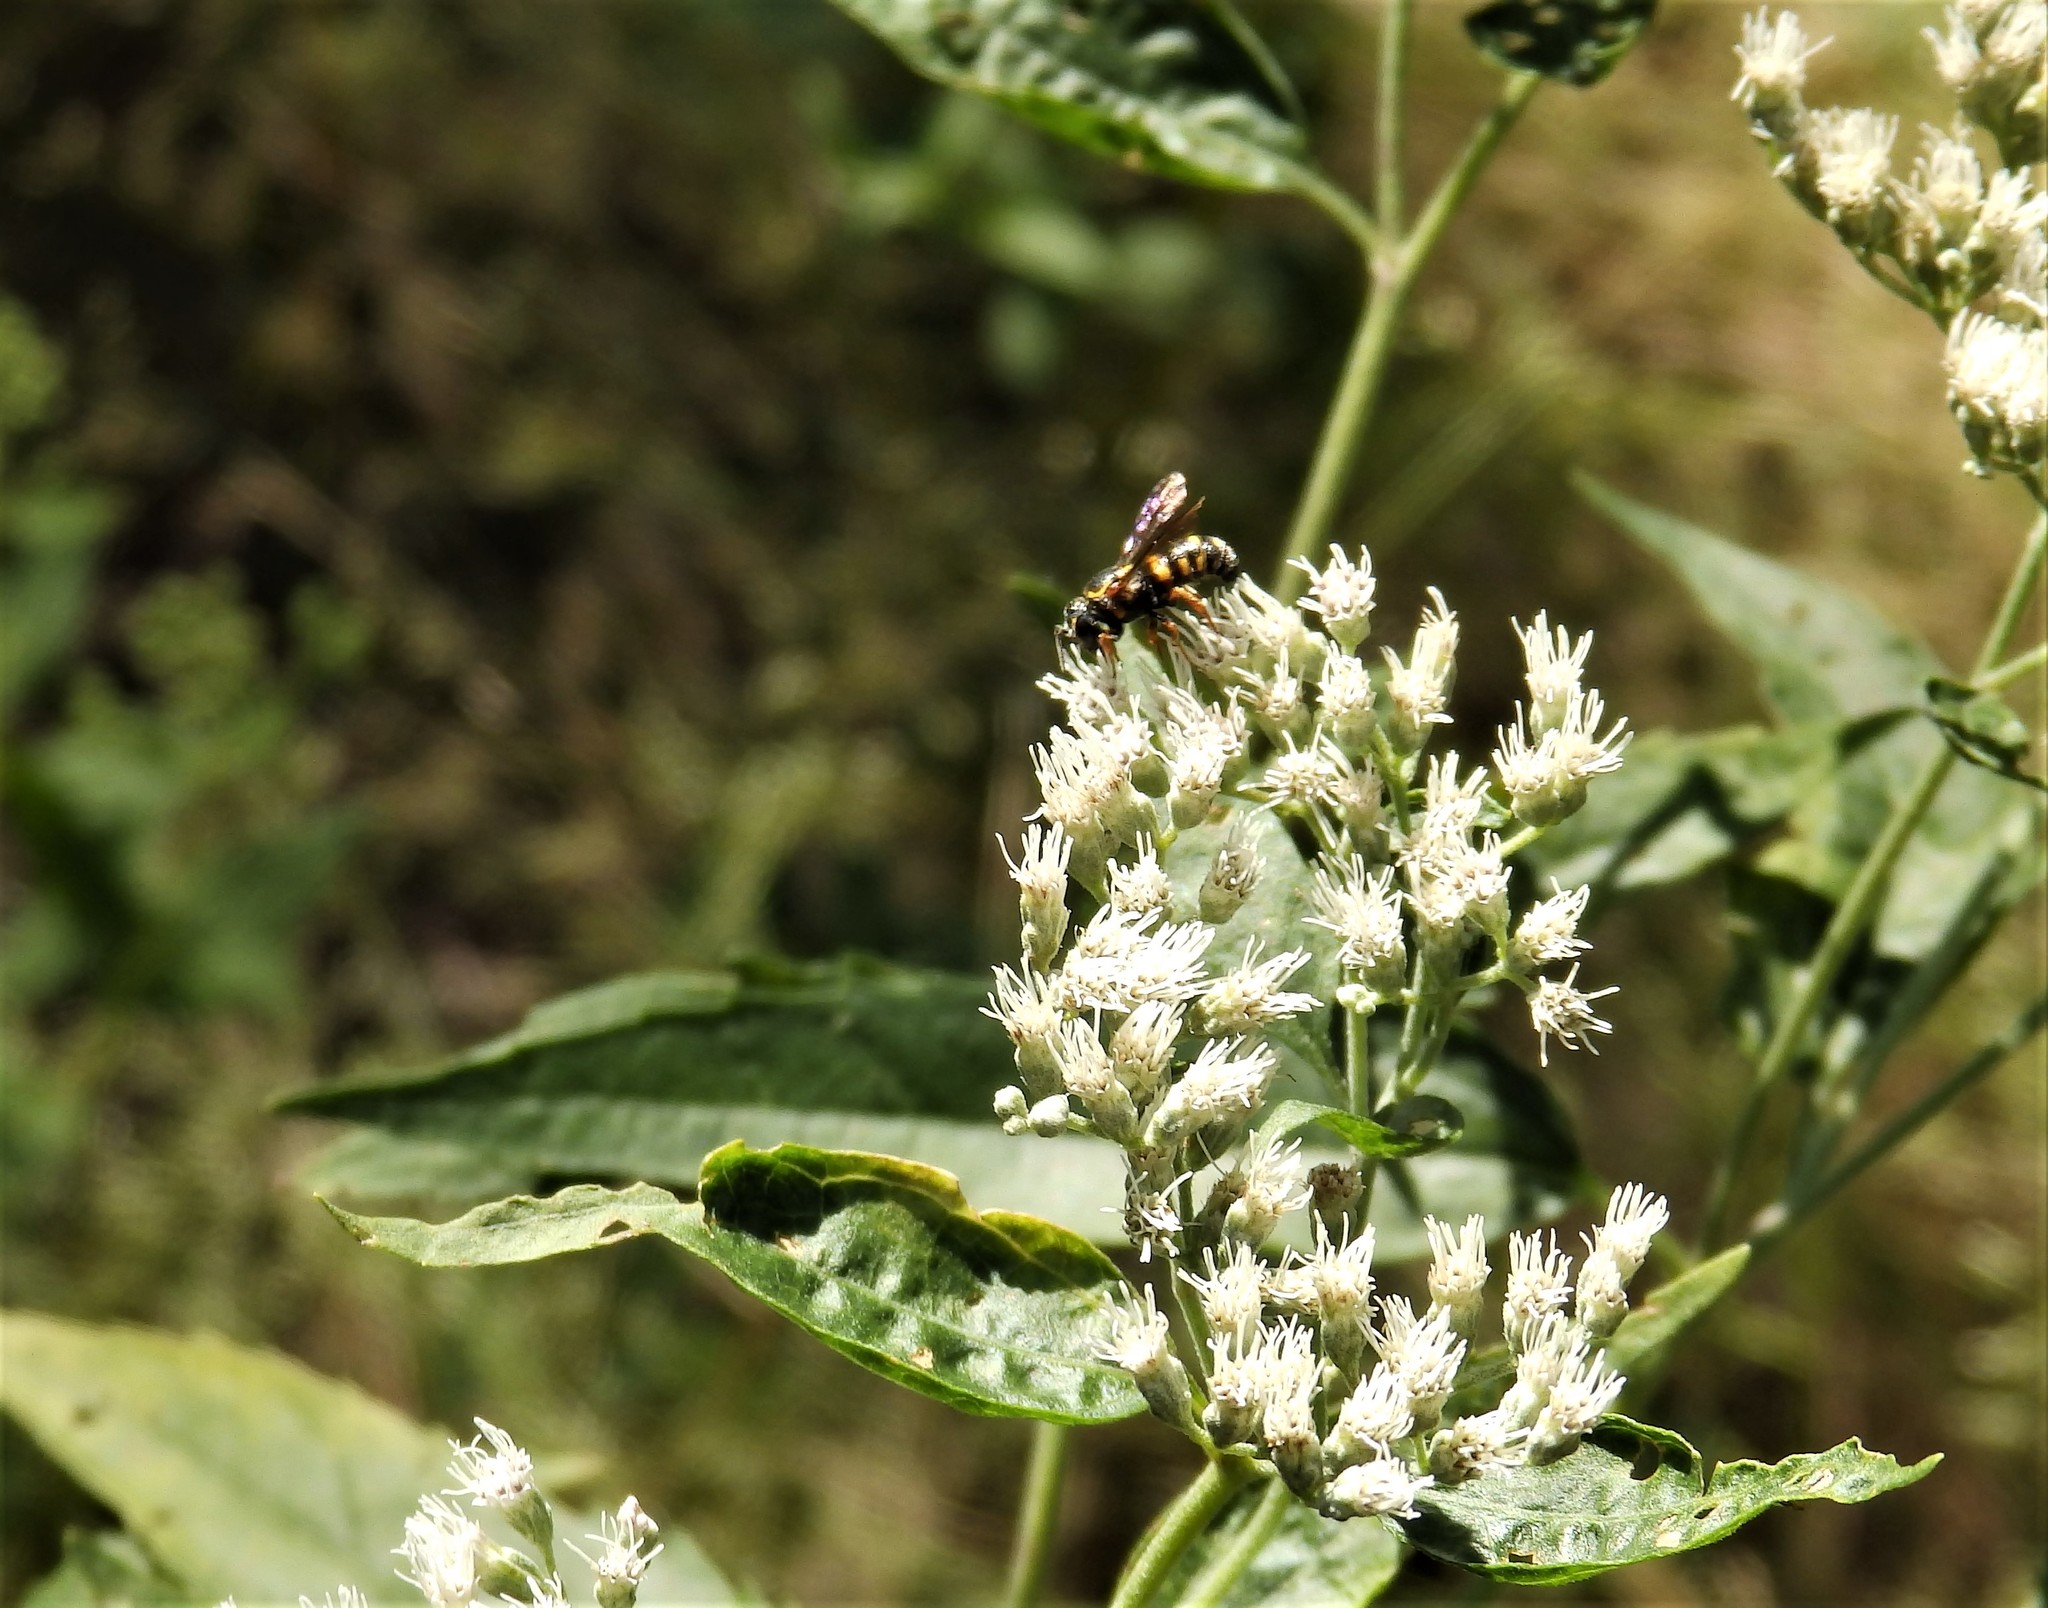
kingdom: Animalia
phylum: Arthropoda
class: Insecta
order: Hymenoptera
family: Megachilidae
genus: Stelis
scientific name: Stelis louisae
